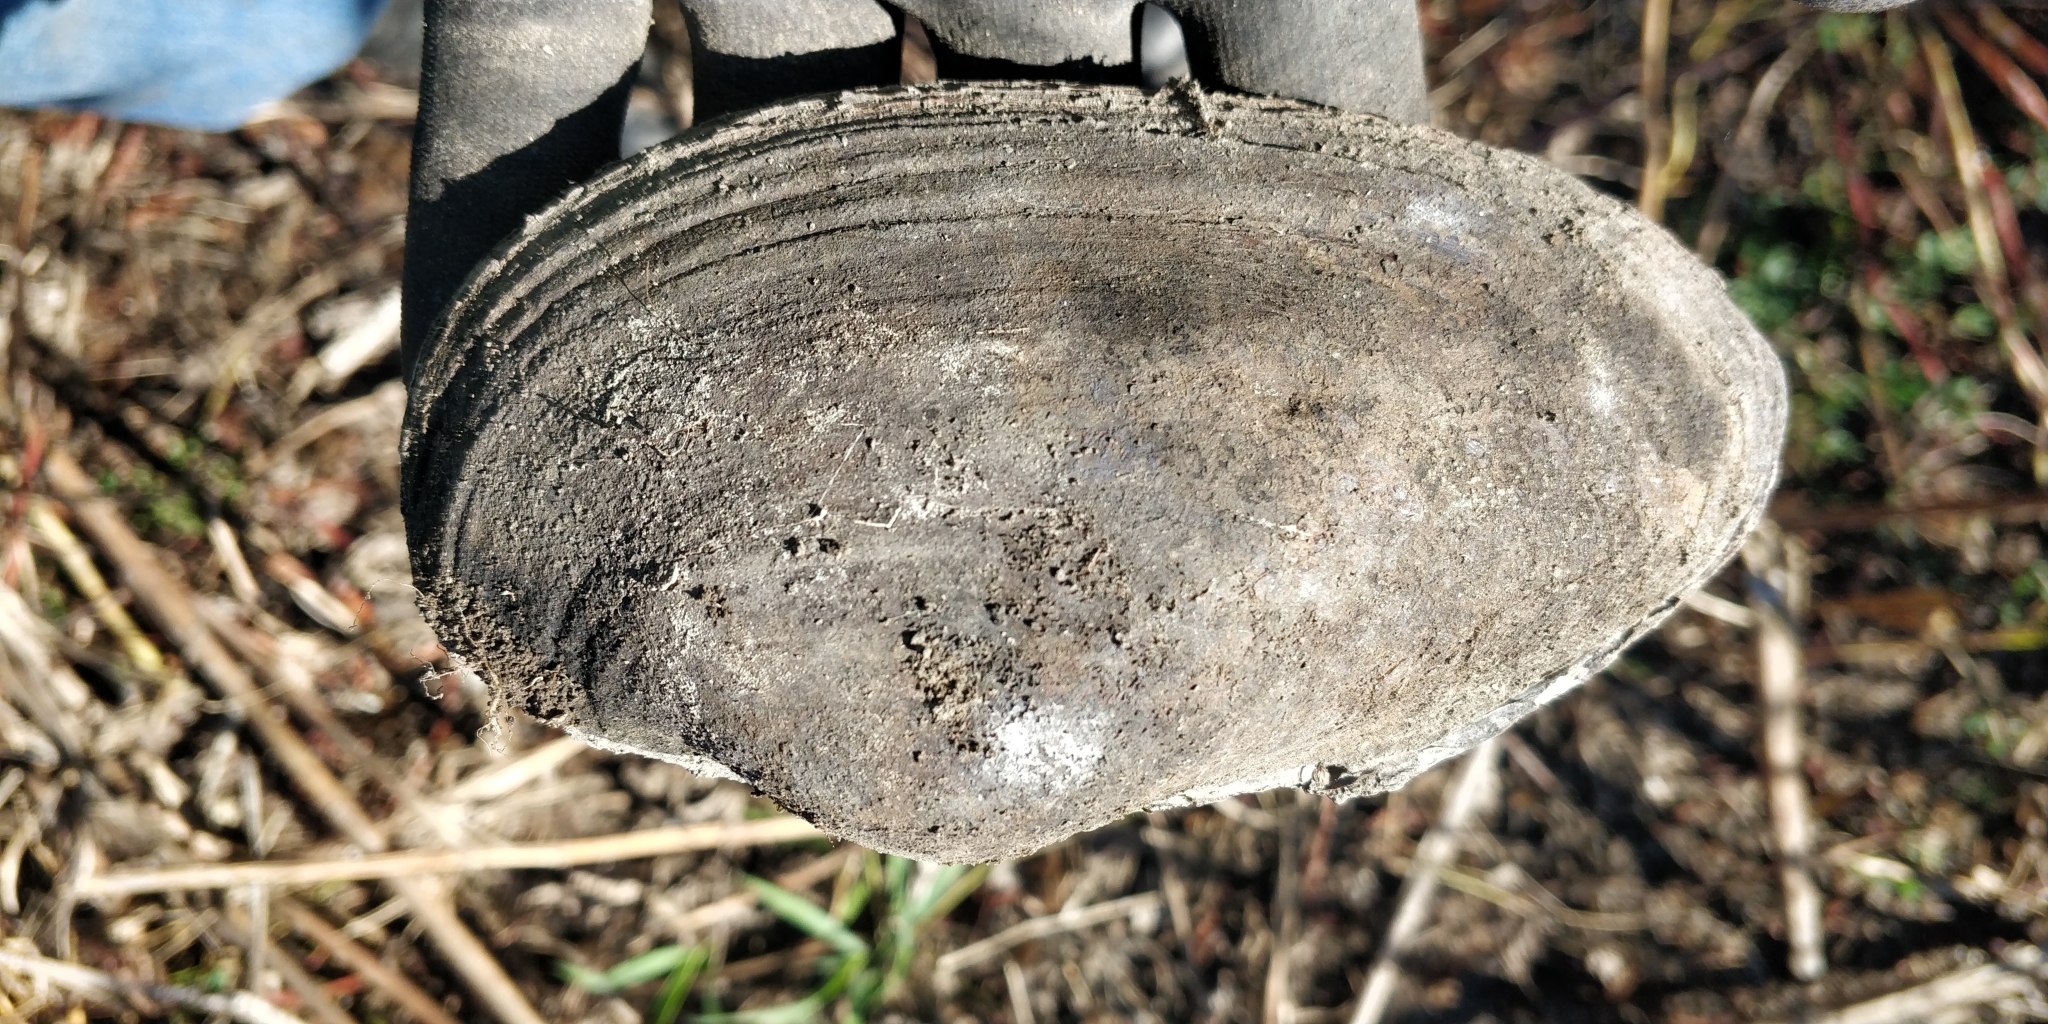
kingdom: Animalia
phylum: Mollusca
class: Bivalvia
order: Unionida
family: Unionidae
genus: Pyganodon
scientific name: Pyganodon grandis
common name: Giant floater
